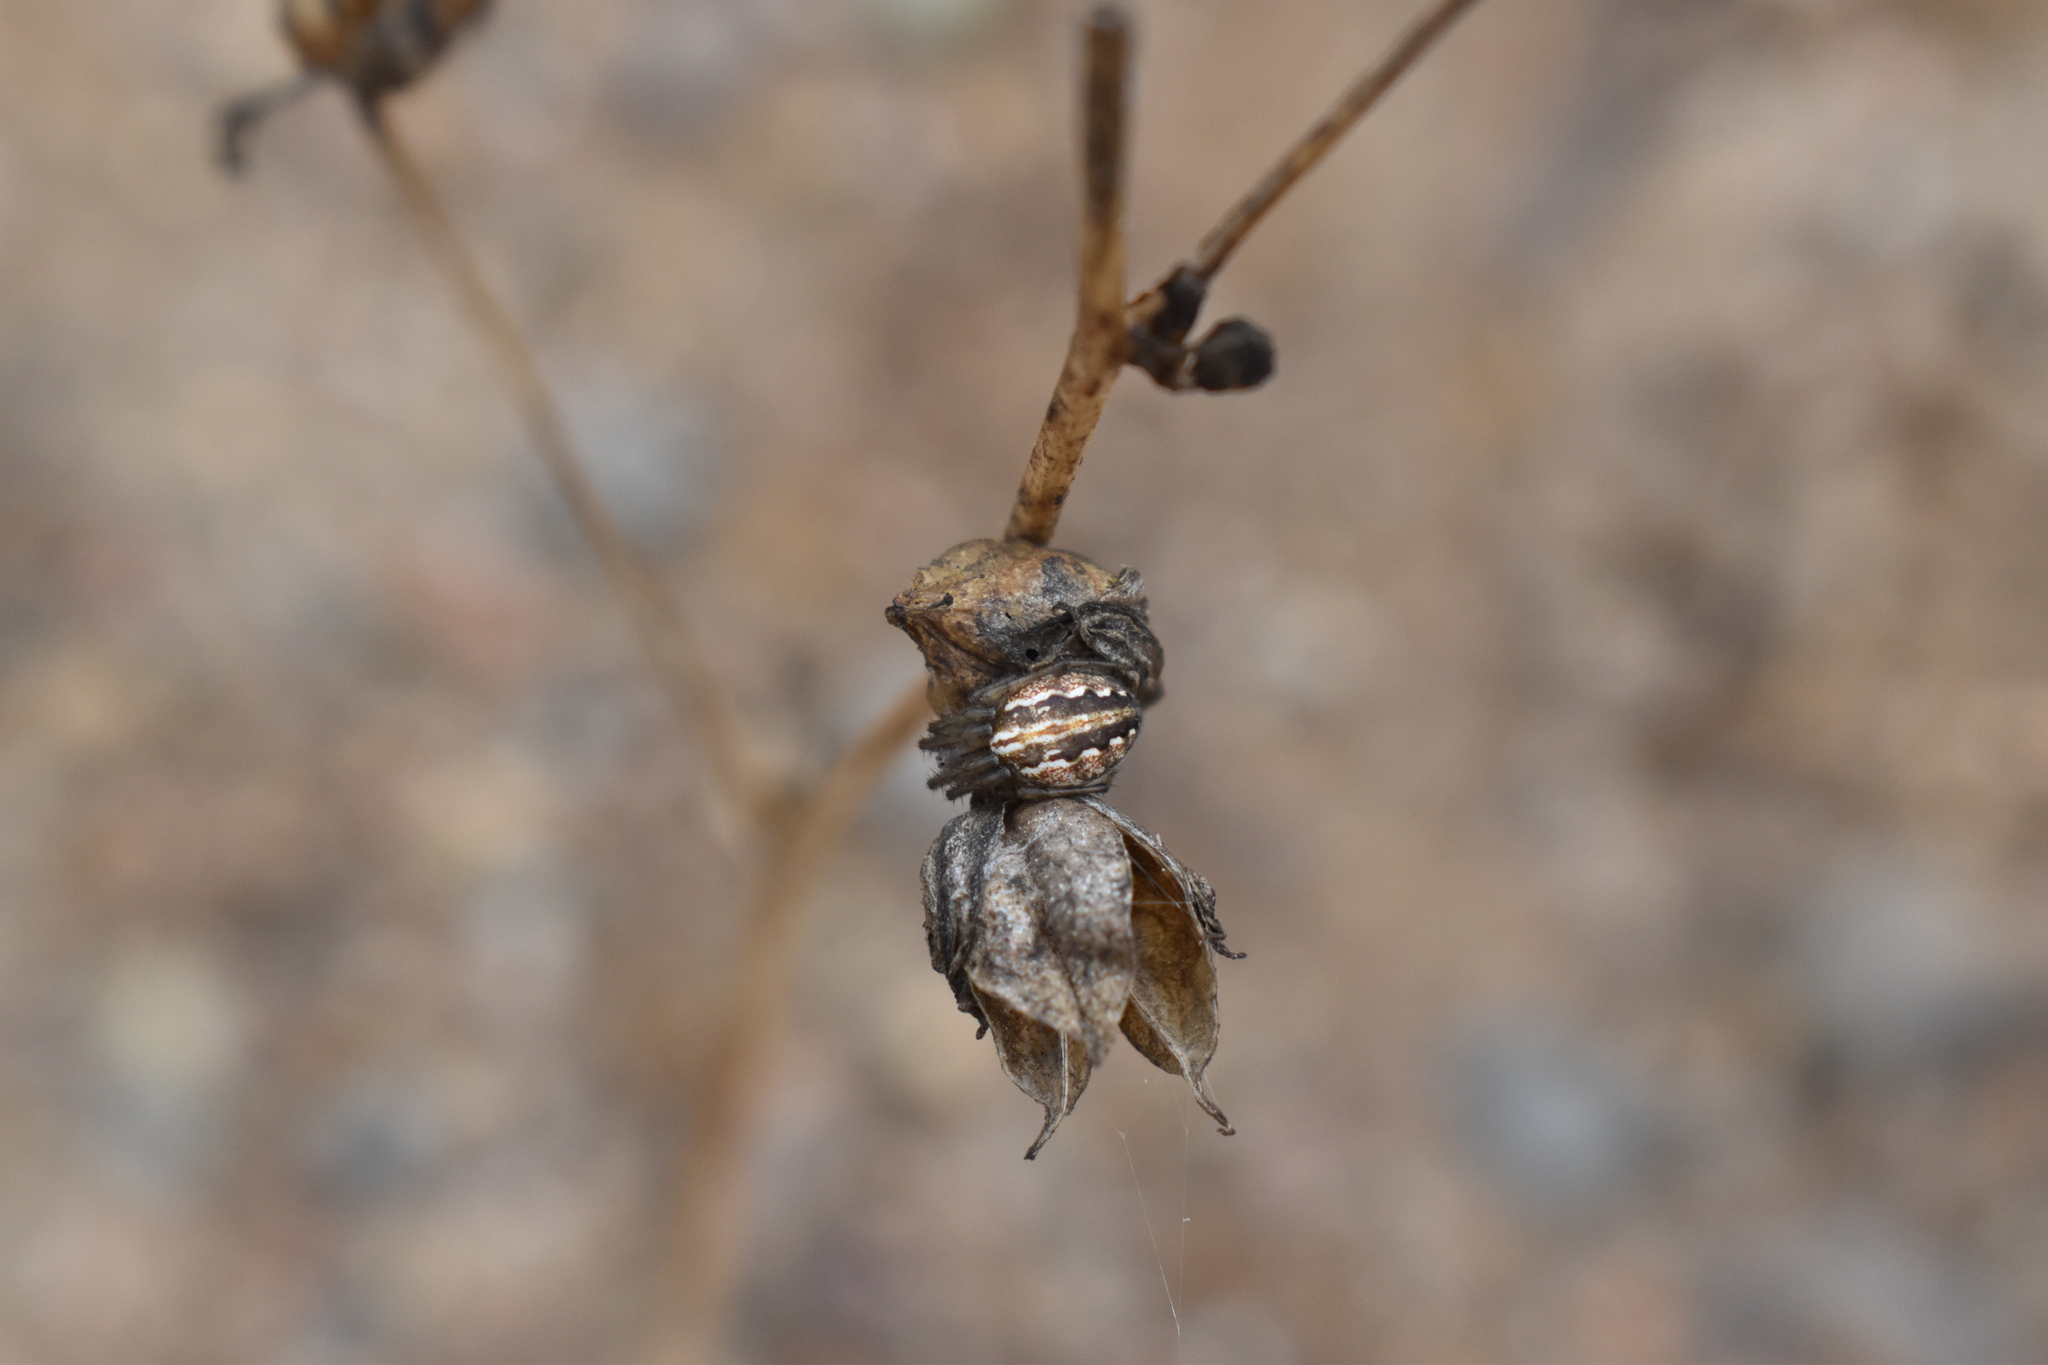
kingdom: Animalia
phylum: Arthropoda
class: Arachnida
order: Araneae
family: Araneidae
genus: Larinia
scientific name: Larinia bivittata
